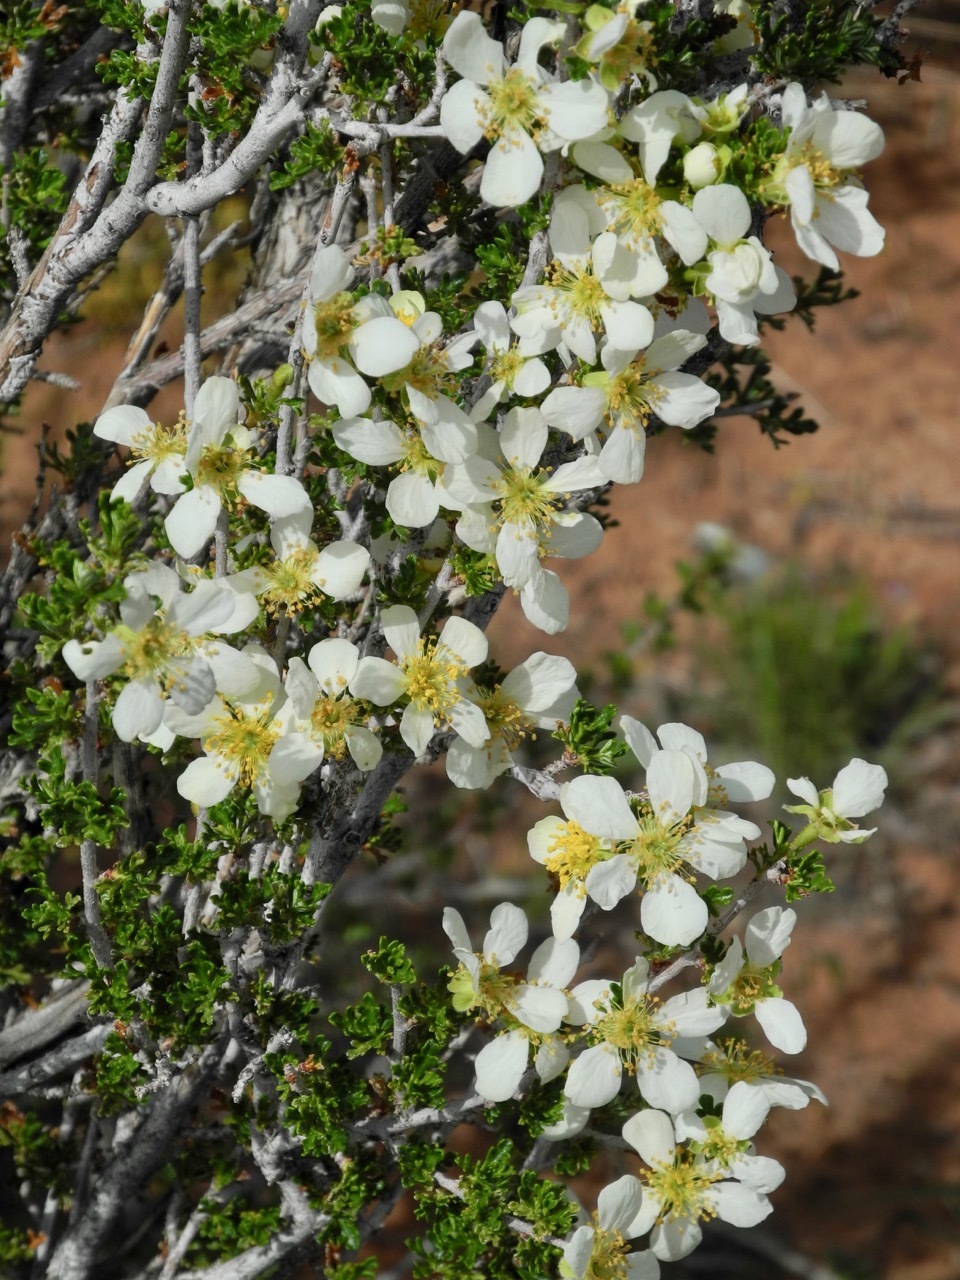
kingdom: Plantae
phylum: Tracheophyta
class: Magnoliopsida
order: Rosales
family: Rosaceae
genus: Purshia
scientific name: Purshia stansburiana
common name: Stansbury's cliffrose
